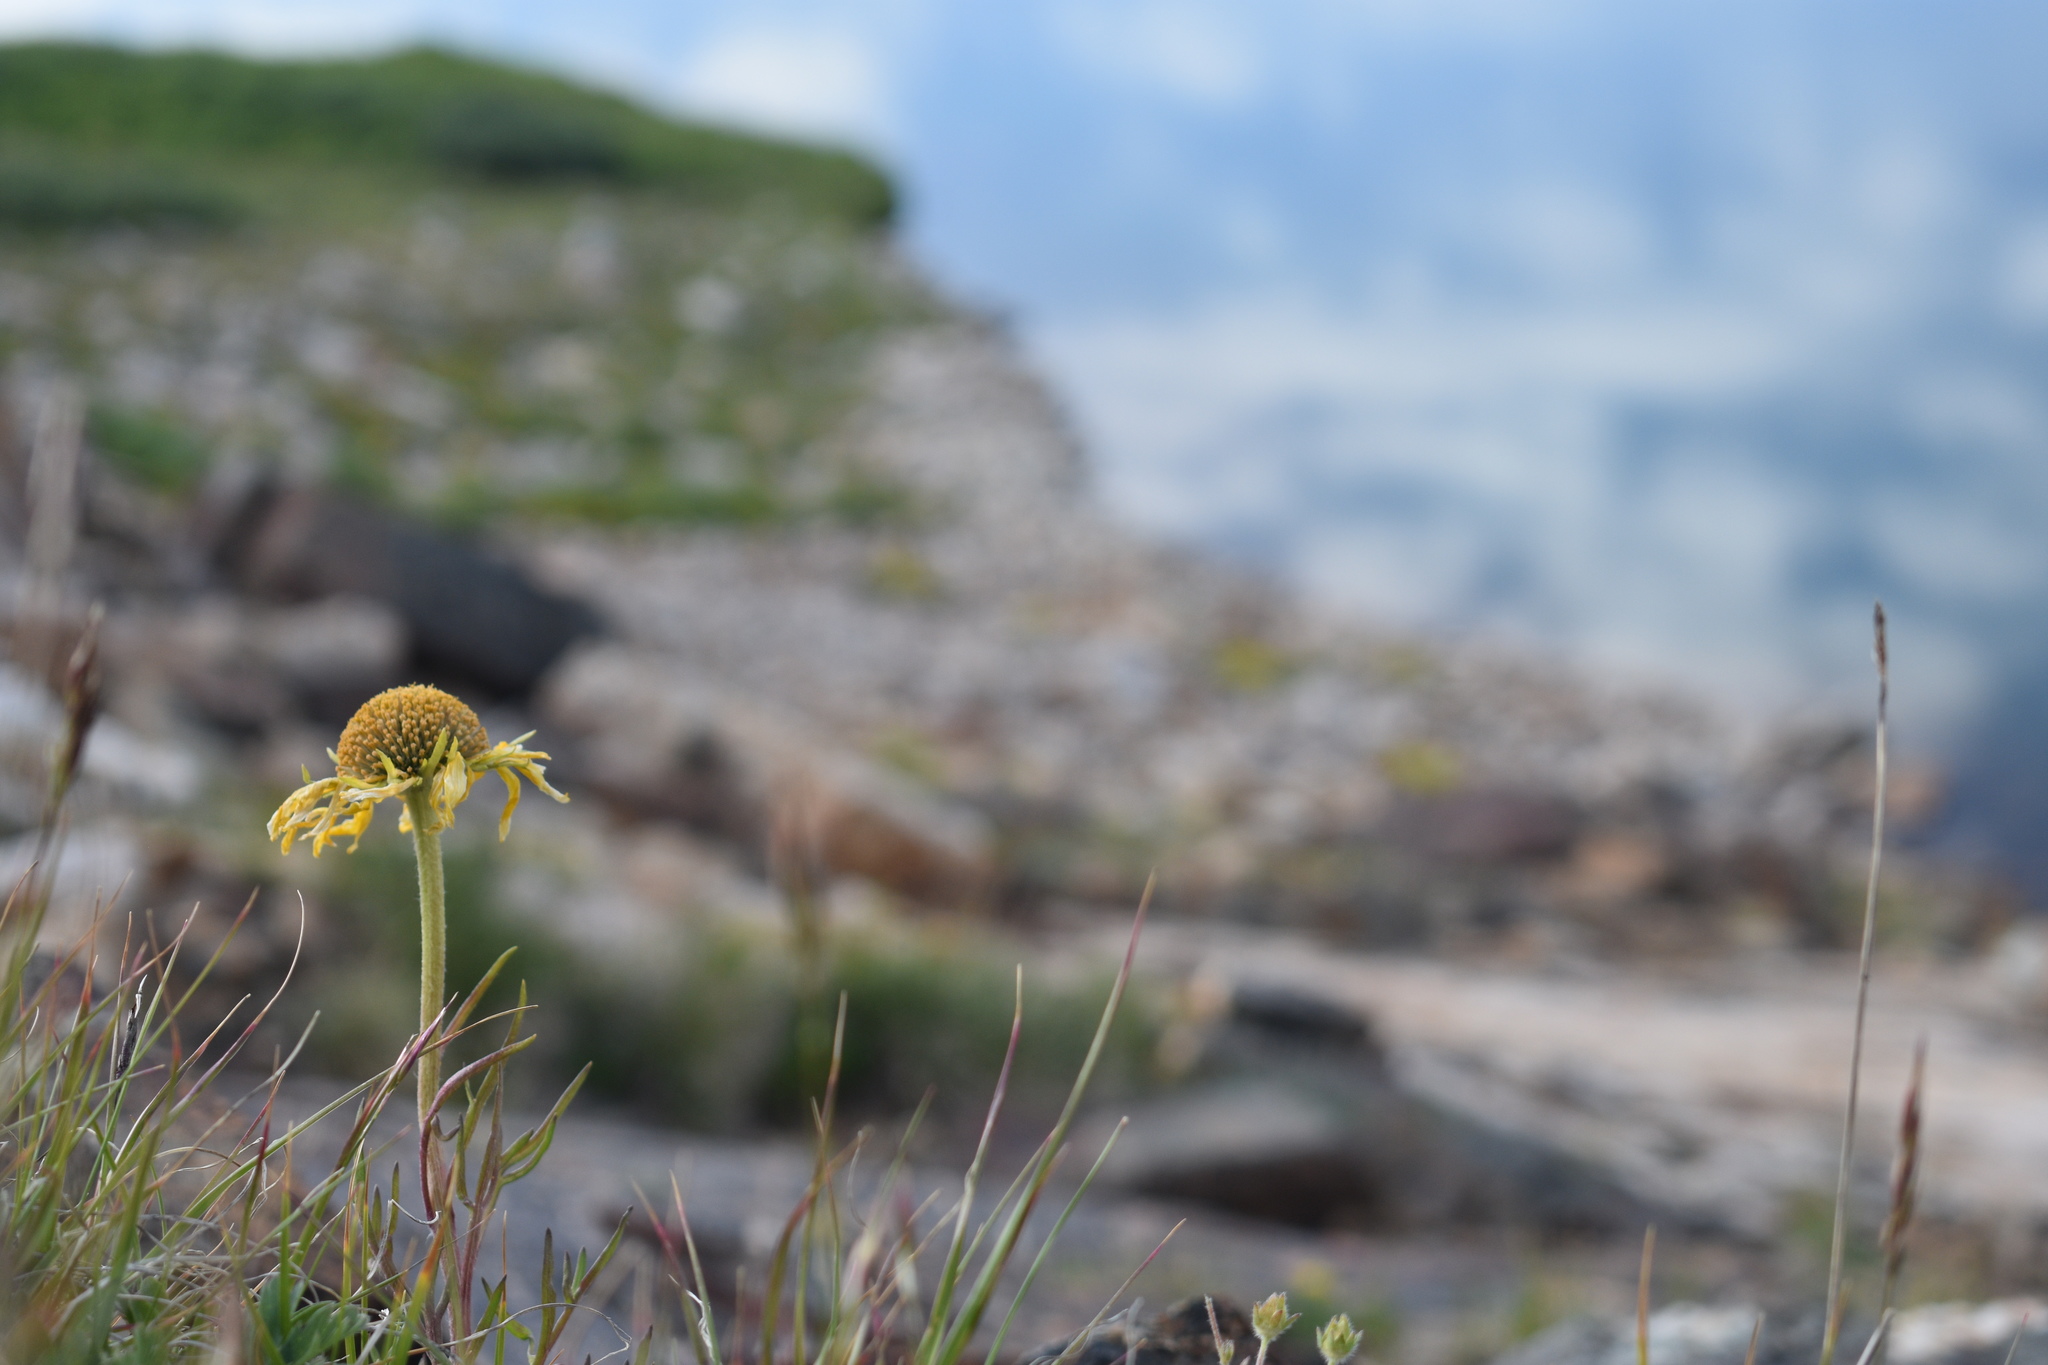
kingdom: Plantae
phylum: Tracheophyta
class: Magnoliopsida
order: Asterales
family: Asteraceae
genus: Hymenoxys
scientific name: Hymenoxys grandiflora
